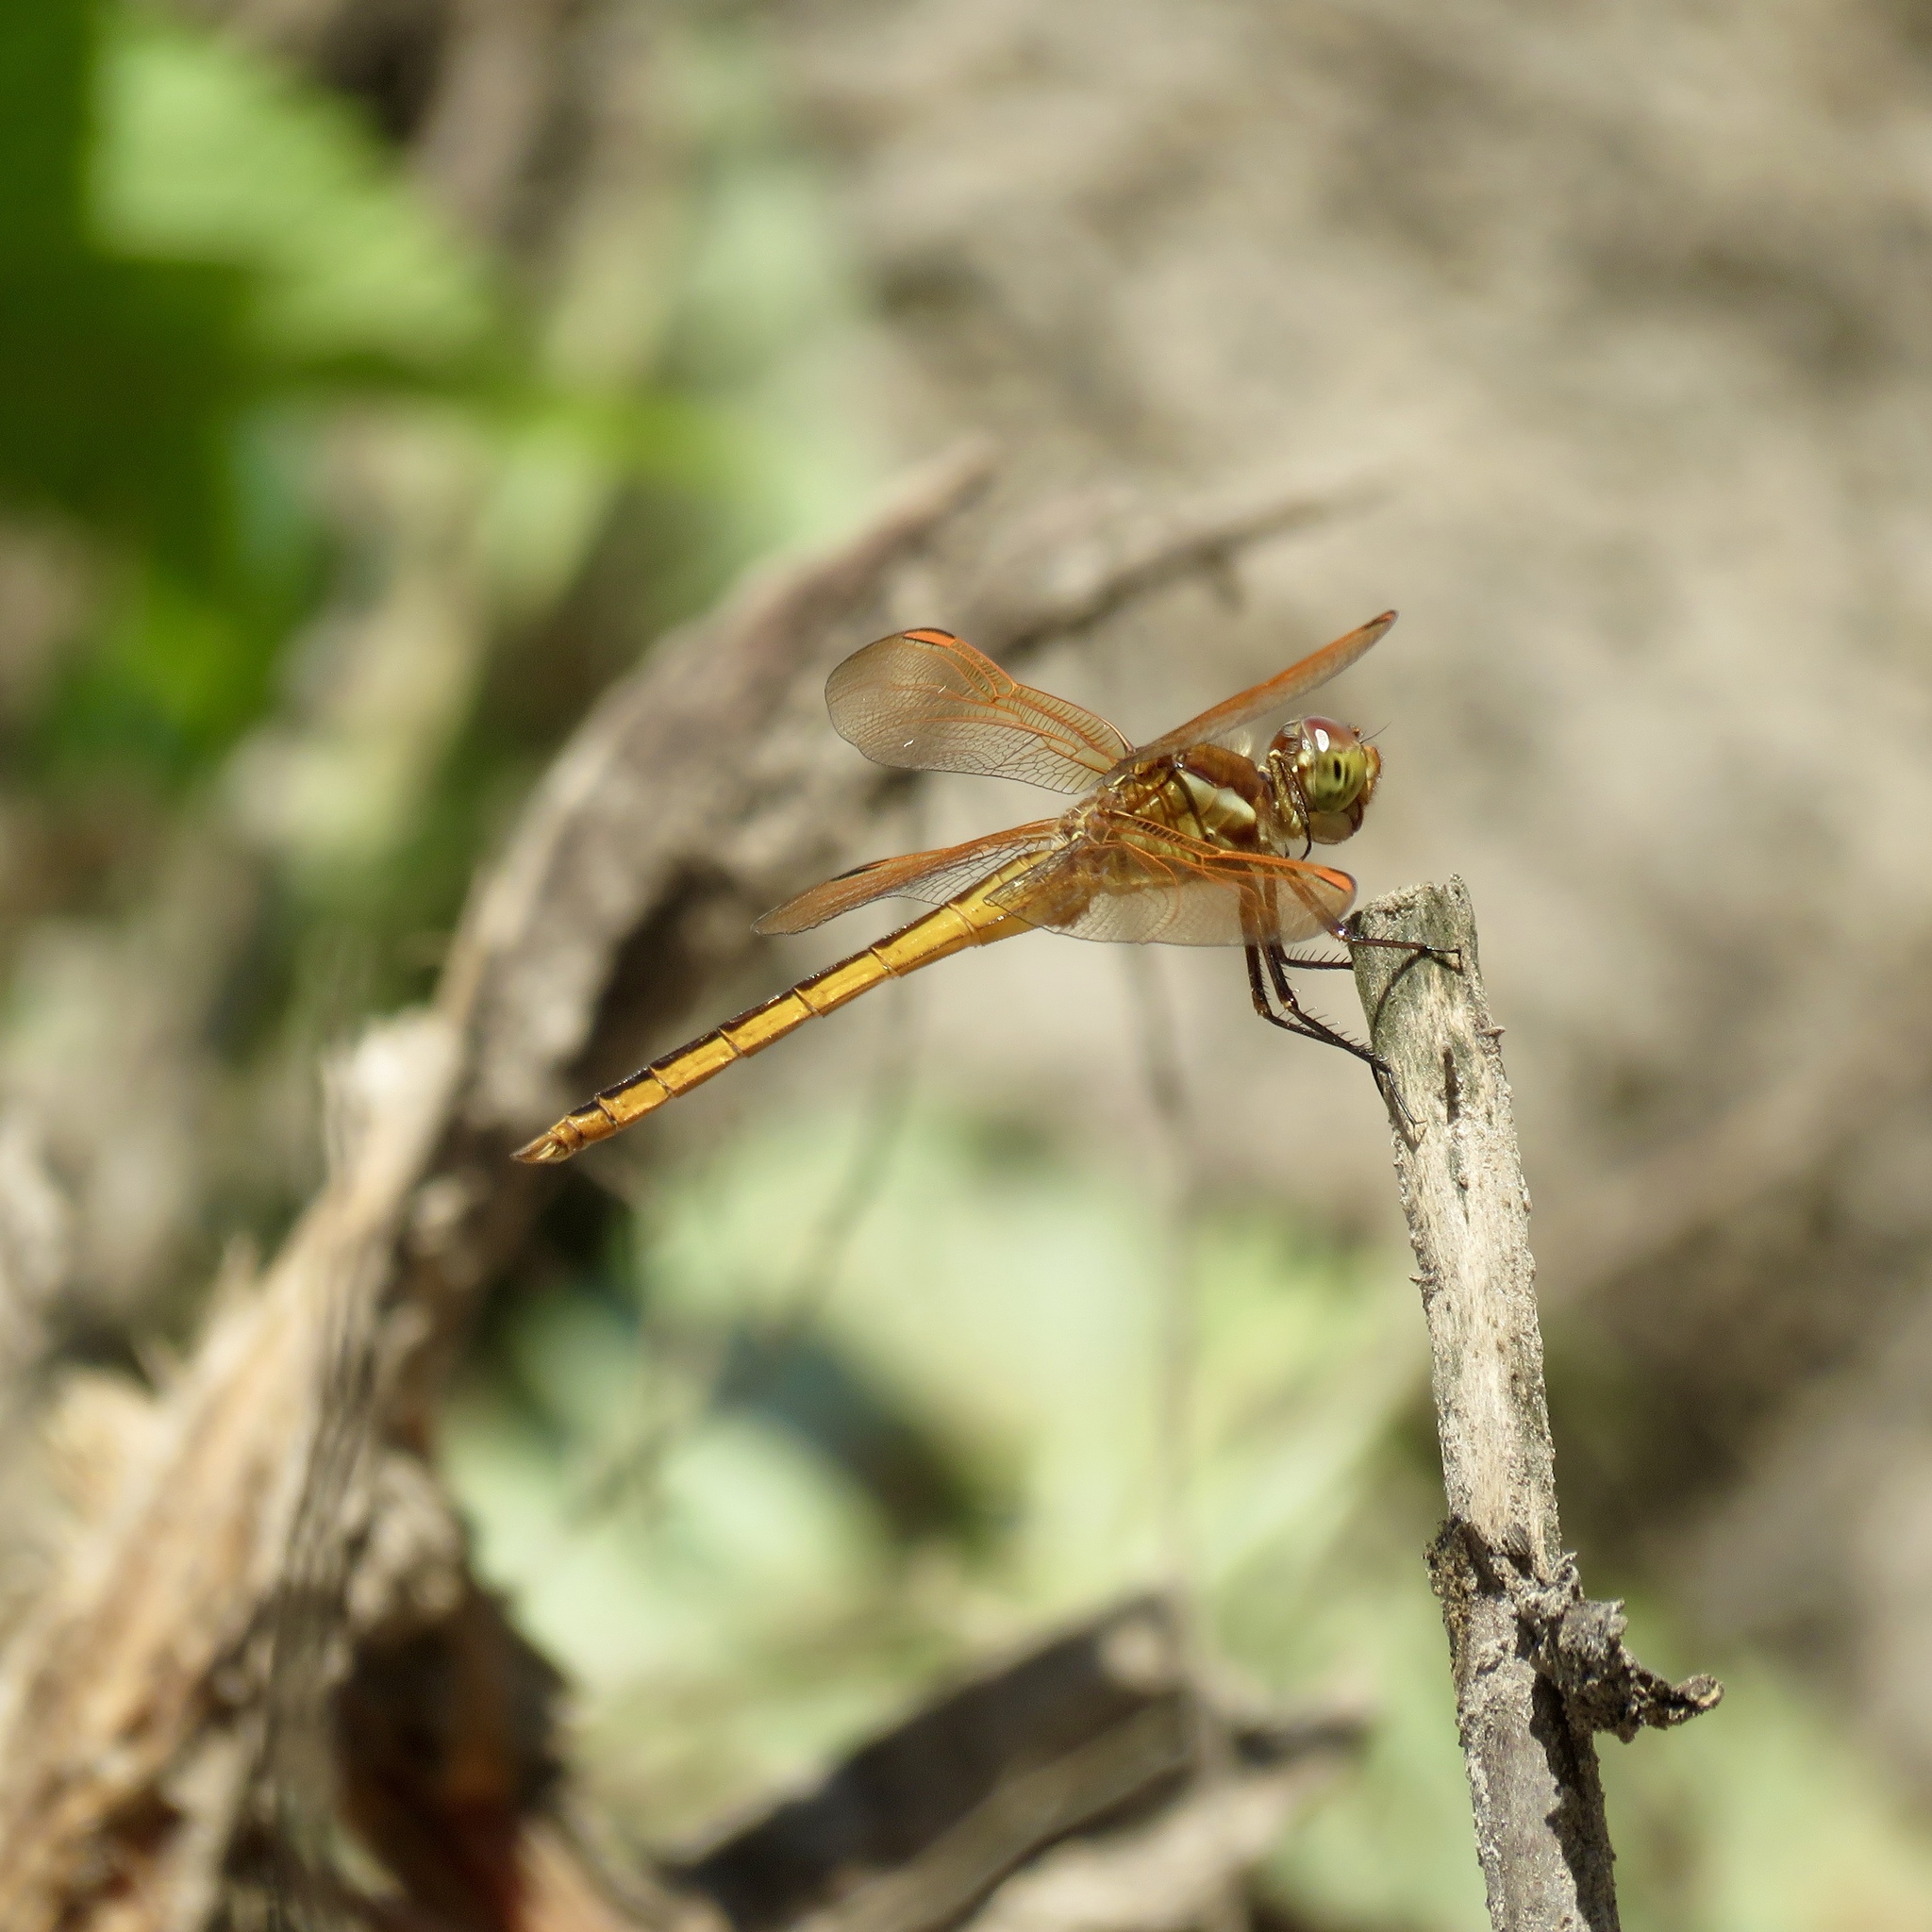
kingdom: Animalia
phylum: Arthropoda
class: Insecta
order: Odonata
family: Libellulidae
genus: Libellula
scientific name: Libellula auripennis
